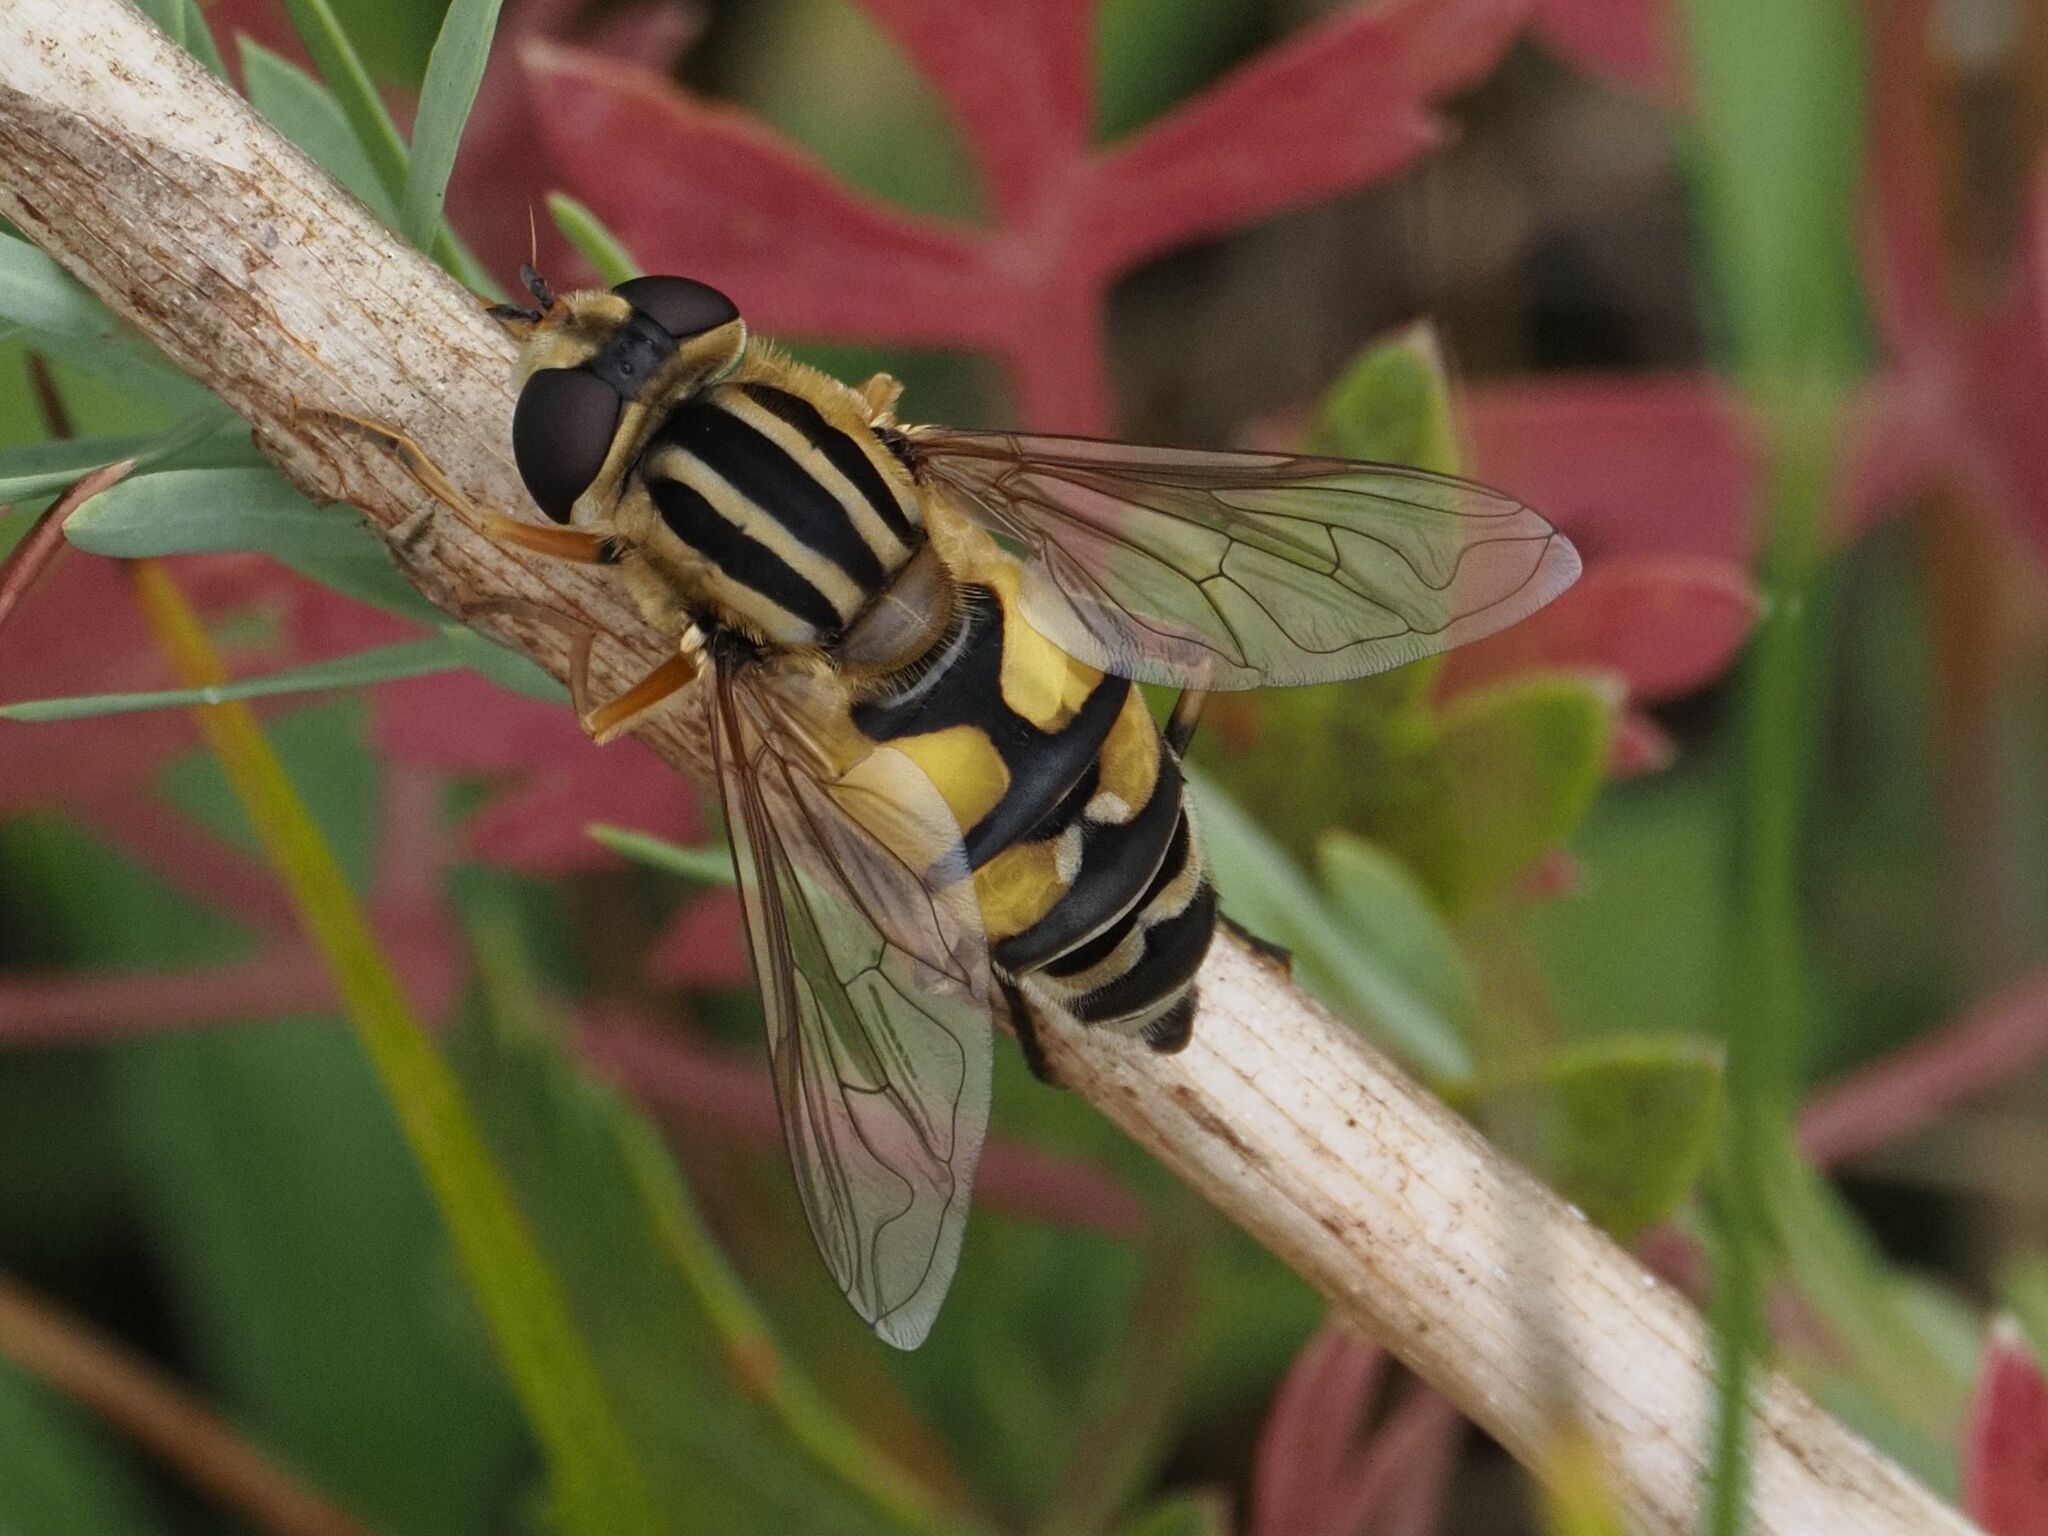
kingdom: Animalia
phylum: Arthropoda
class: Insecta
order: Diptera
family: Syrphidae
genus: Helophilus
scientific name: Helophilus trivittatus
